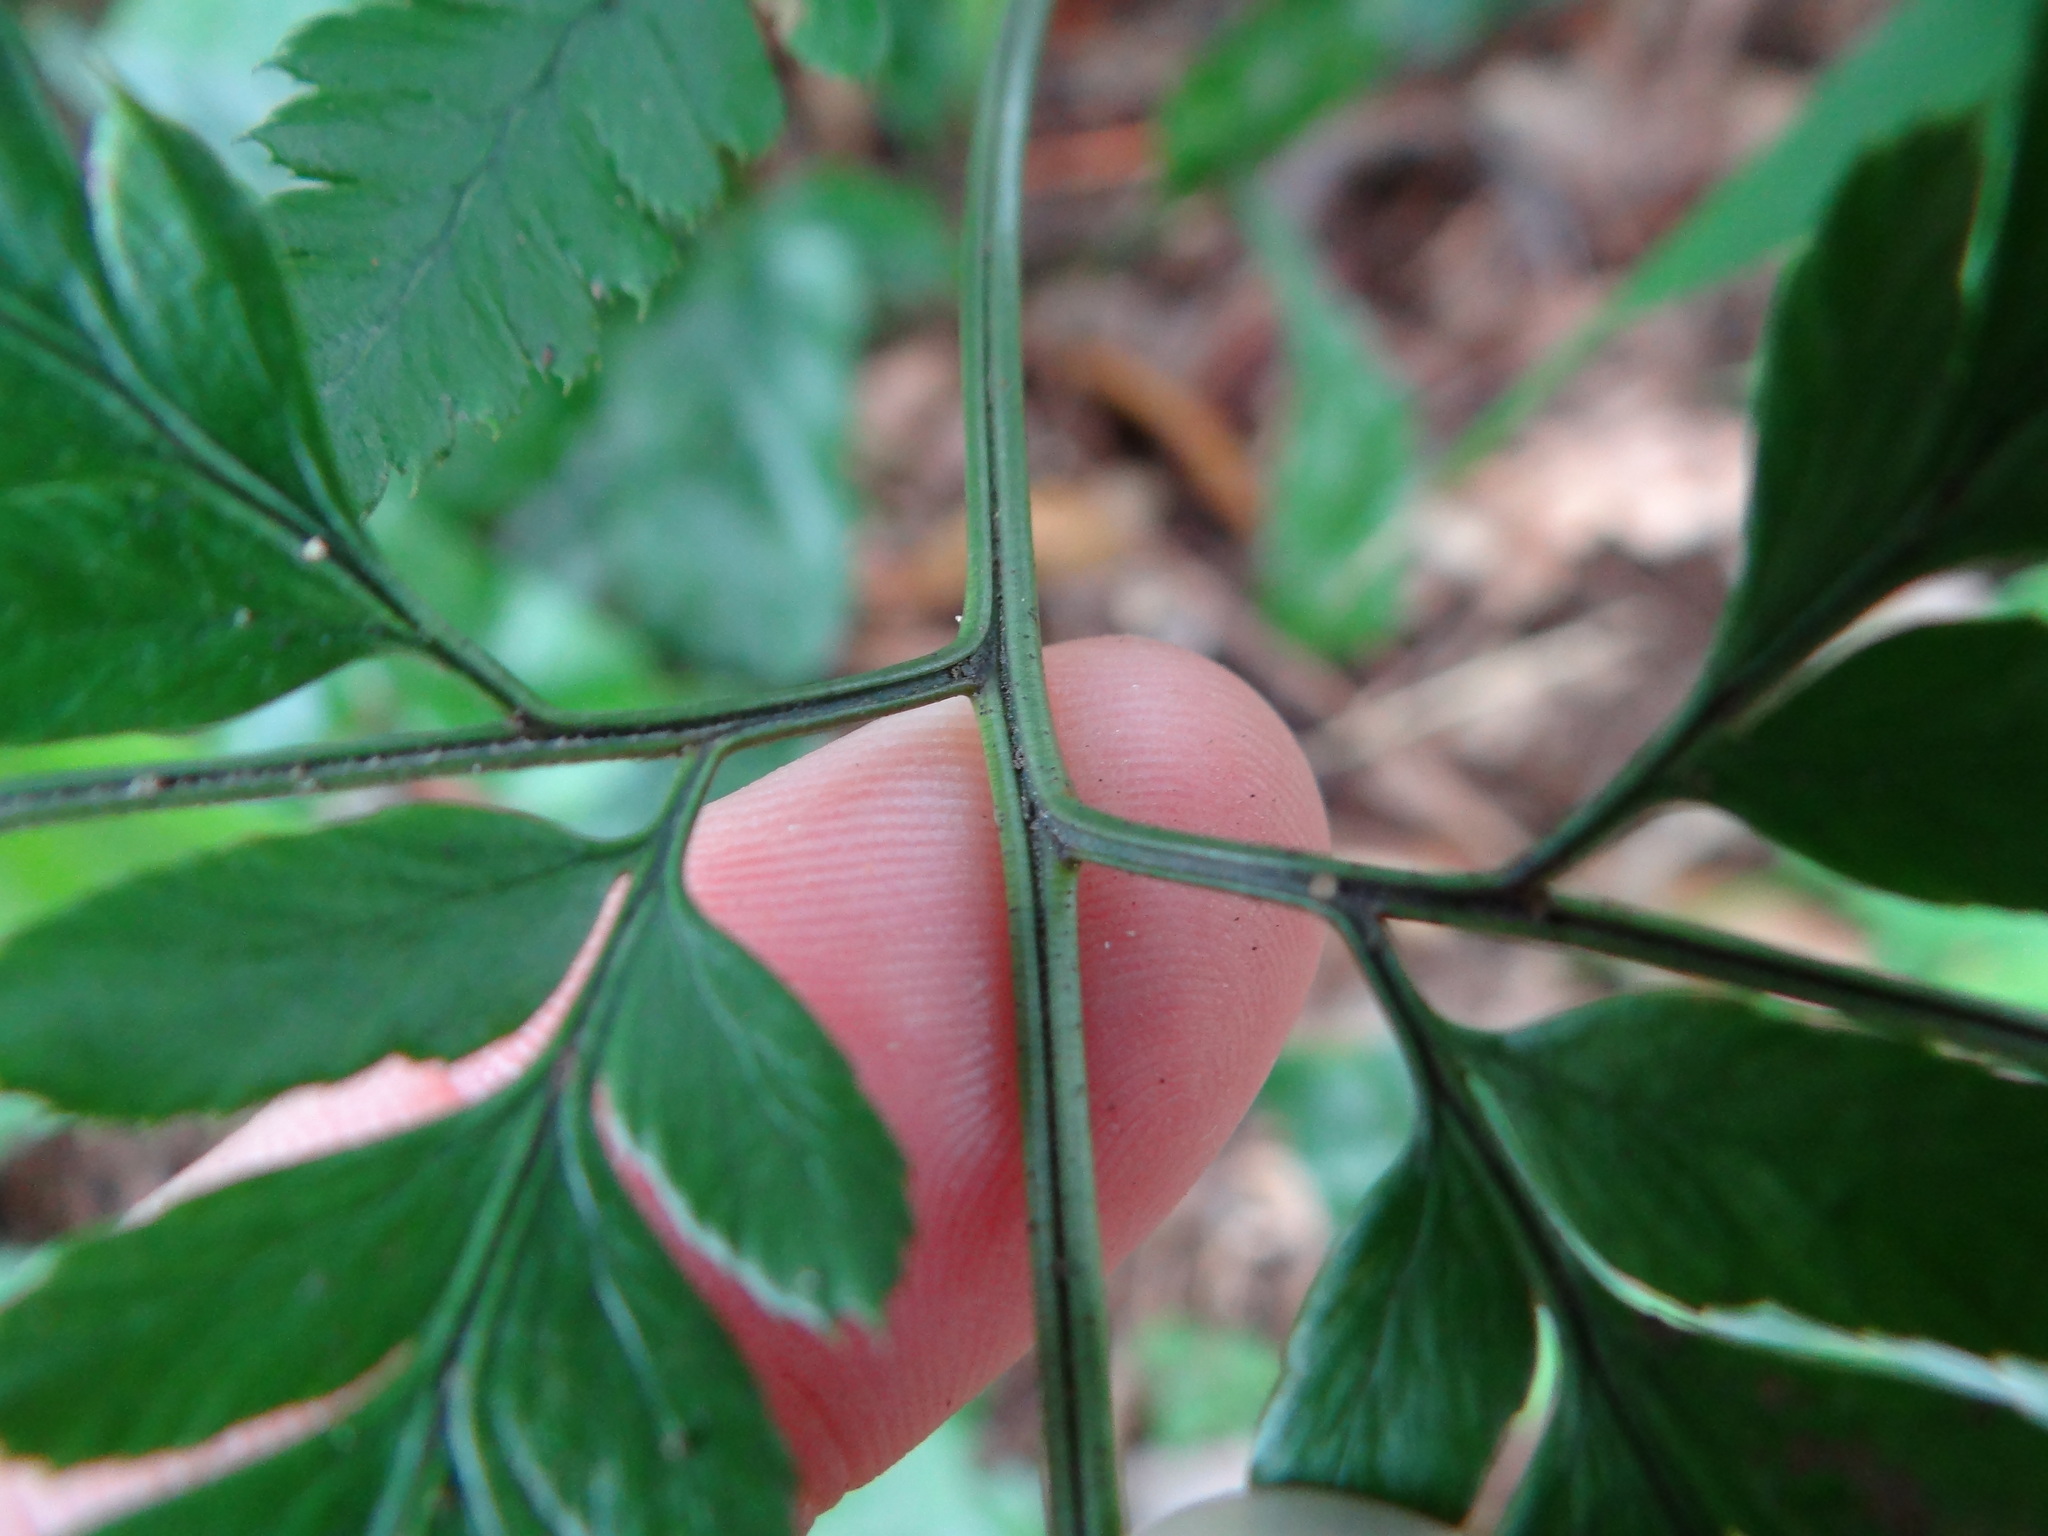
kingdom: Plantae
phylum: Tracheophyta
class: Polypodiopsida
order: Polypodiales
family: Dryopteridaceae
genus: Arachniodes
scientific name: Arachniodes pseudoaristata
